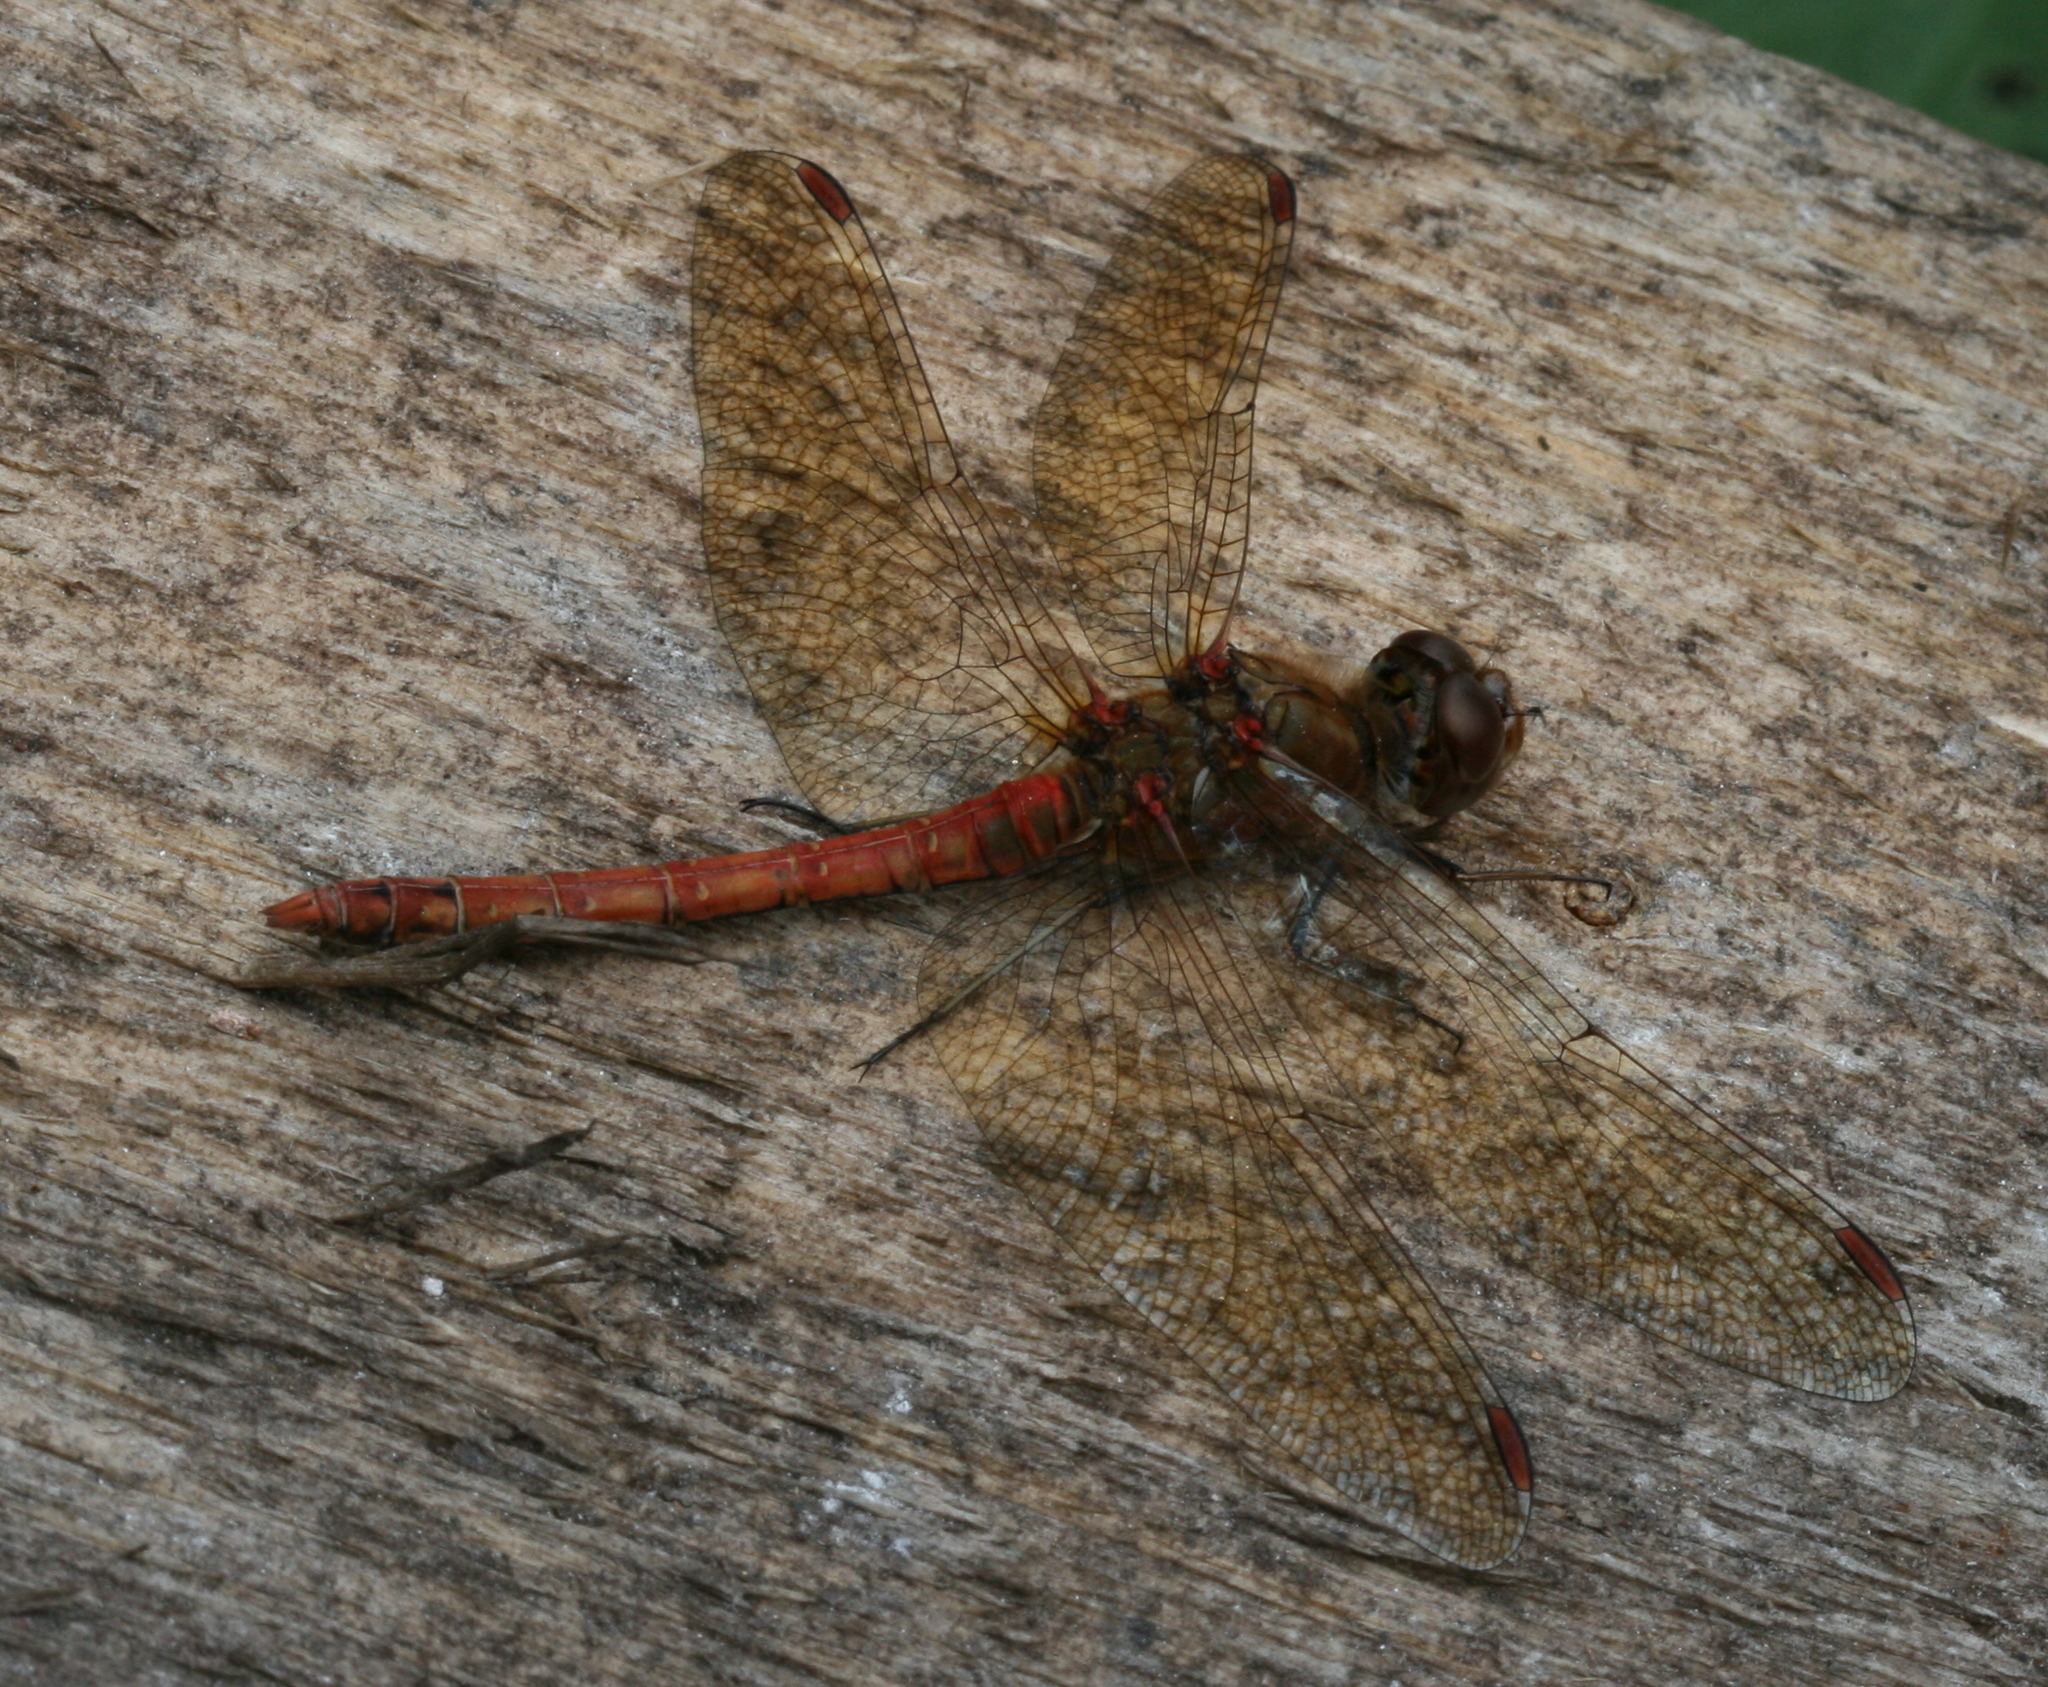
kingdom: Animalia
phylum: Arthropoda
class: Insecta
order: Odonata
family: Libellulidae
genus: Sympetrum
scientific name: Sympetrum striolatum
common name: Common darter
